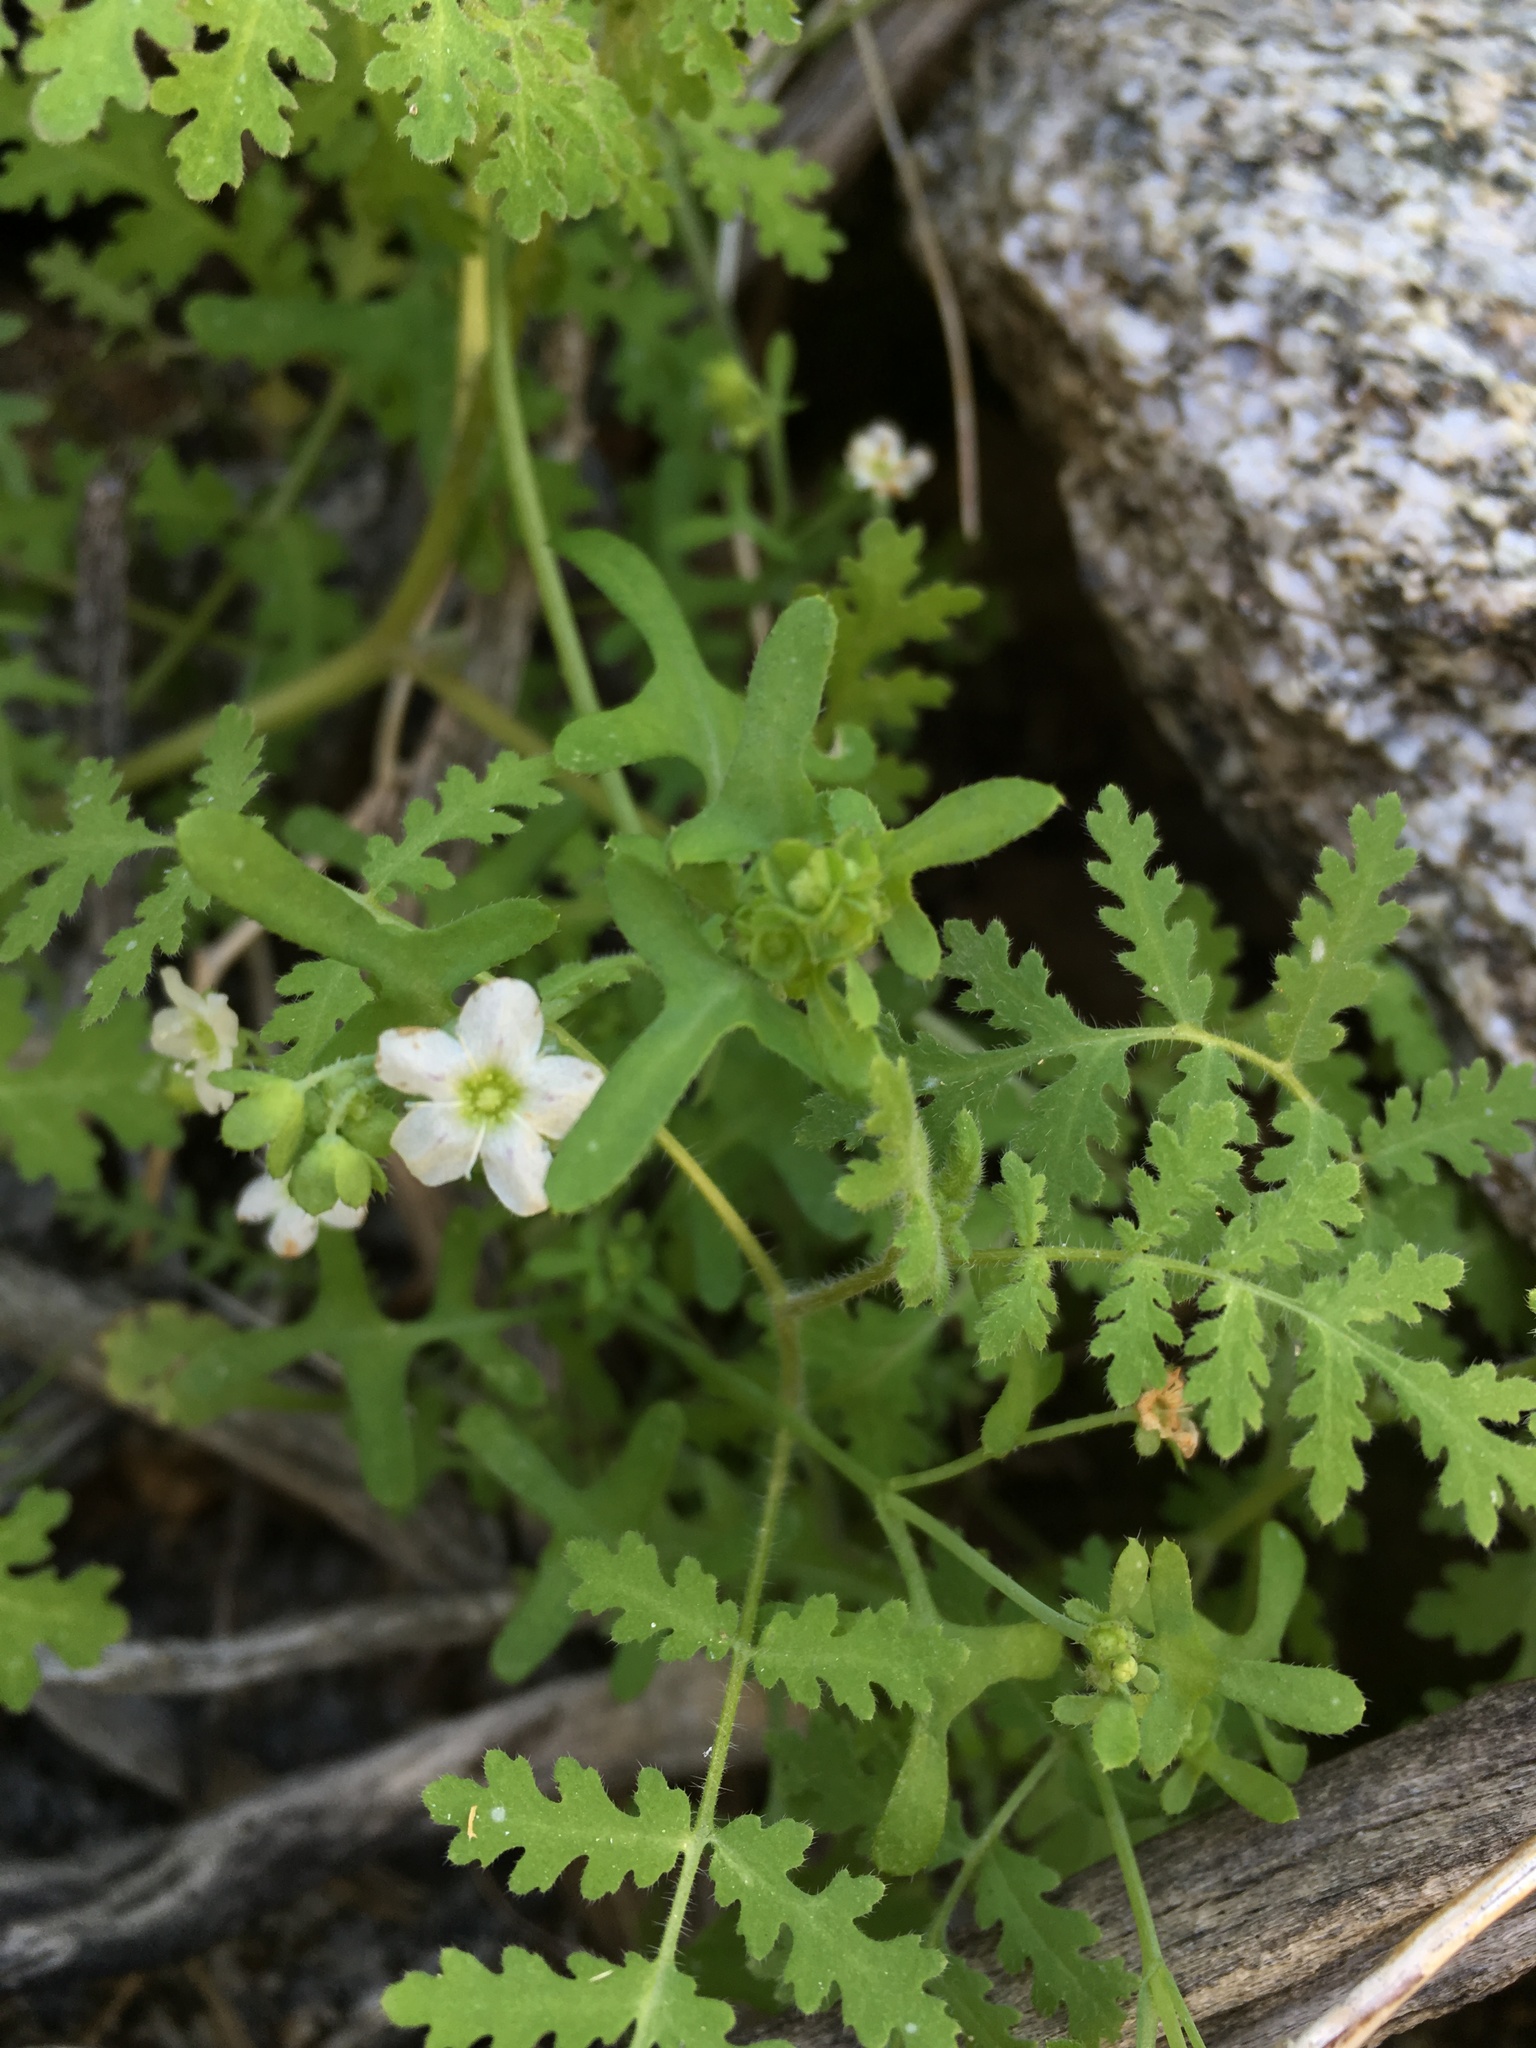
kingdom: Plantae
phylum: Tracheophyta
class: Magnoliopsida
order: Boraginales
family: Hydrophyllaceae
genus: Pholistoma
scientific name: Pholistoma membranaceum
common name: White fiesta-flower
